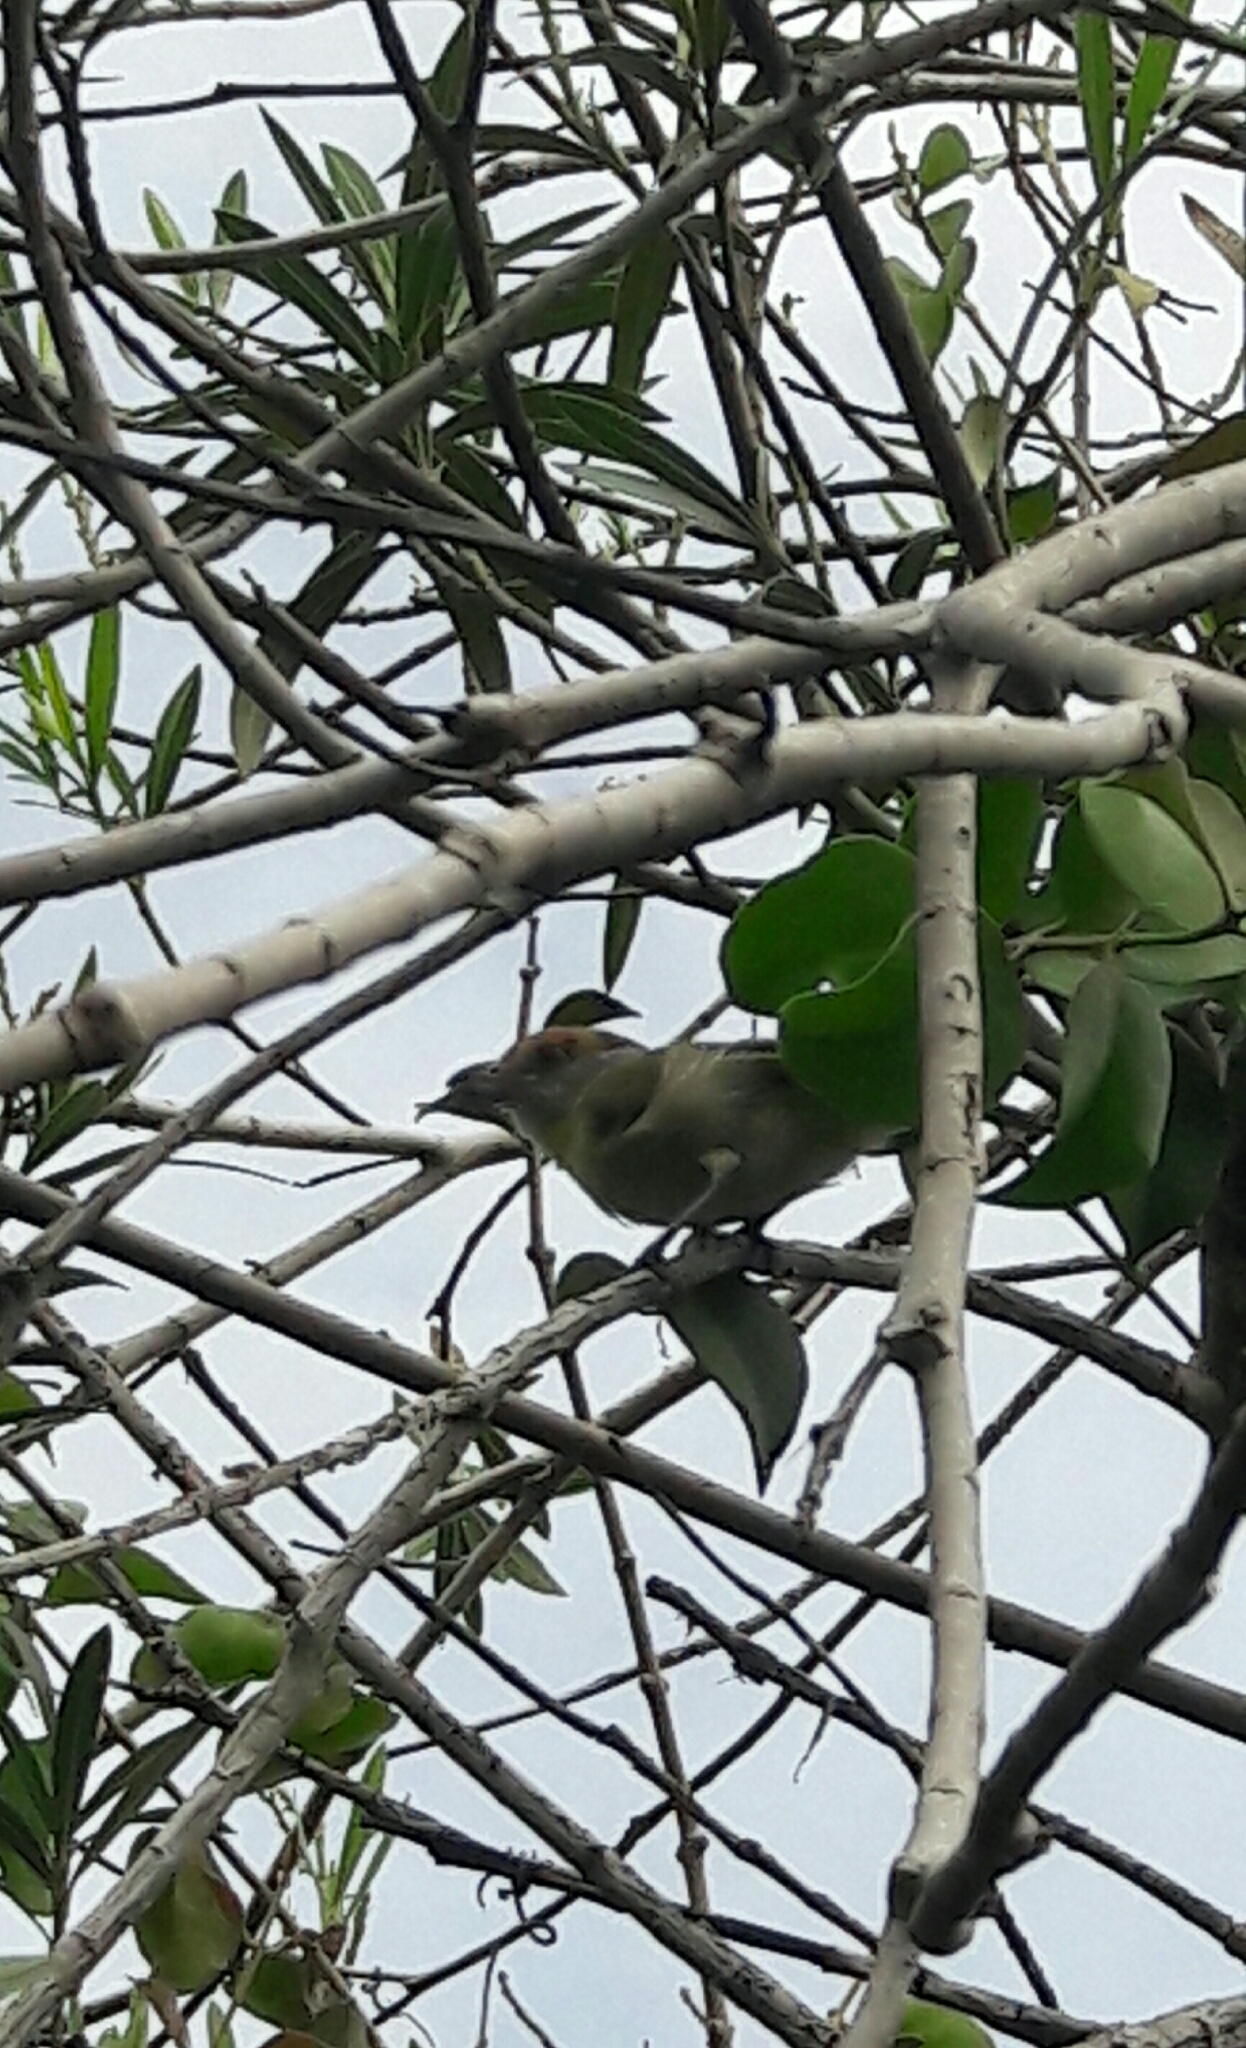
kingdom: Animalia
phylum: Chordata
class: Aves
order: Passeriformes
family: Vireonidae
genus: Cyclarhis
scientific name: Cyclarhis gujanensis
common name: Rufous-browed peppershrike
